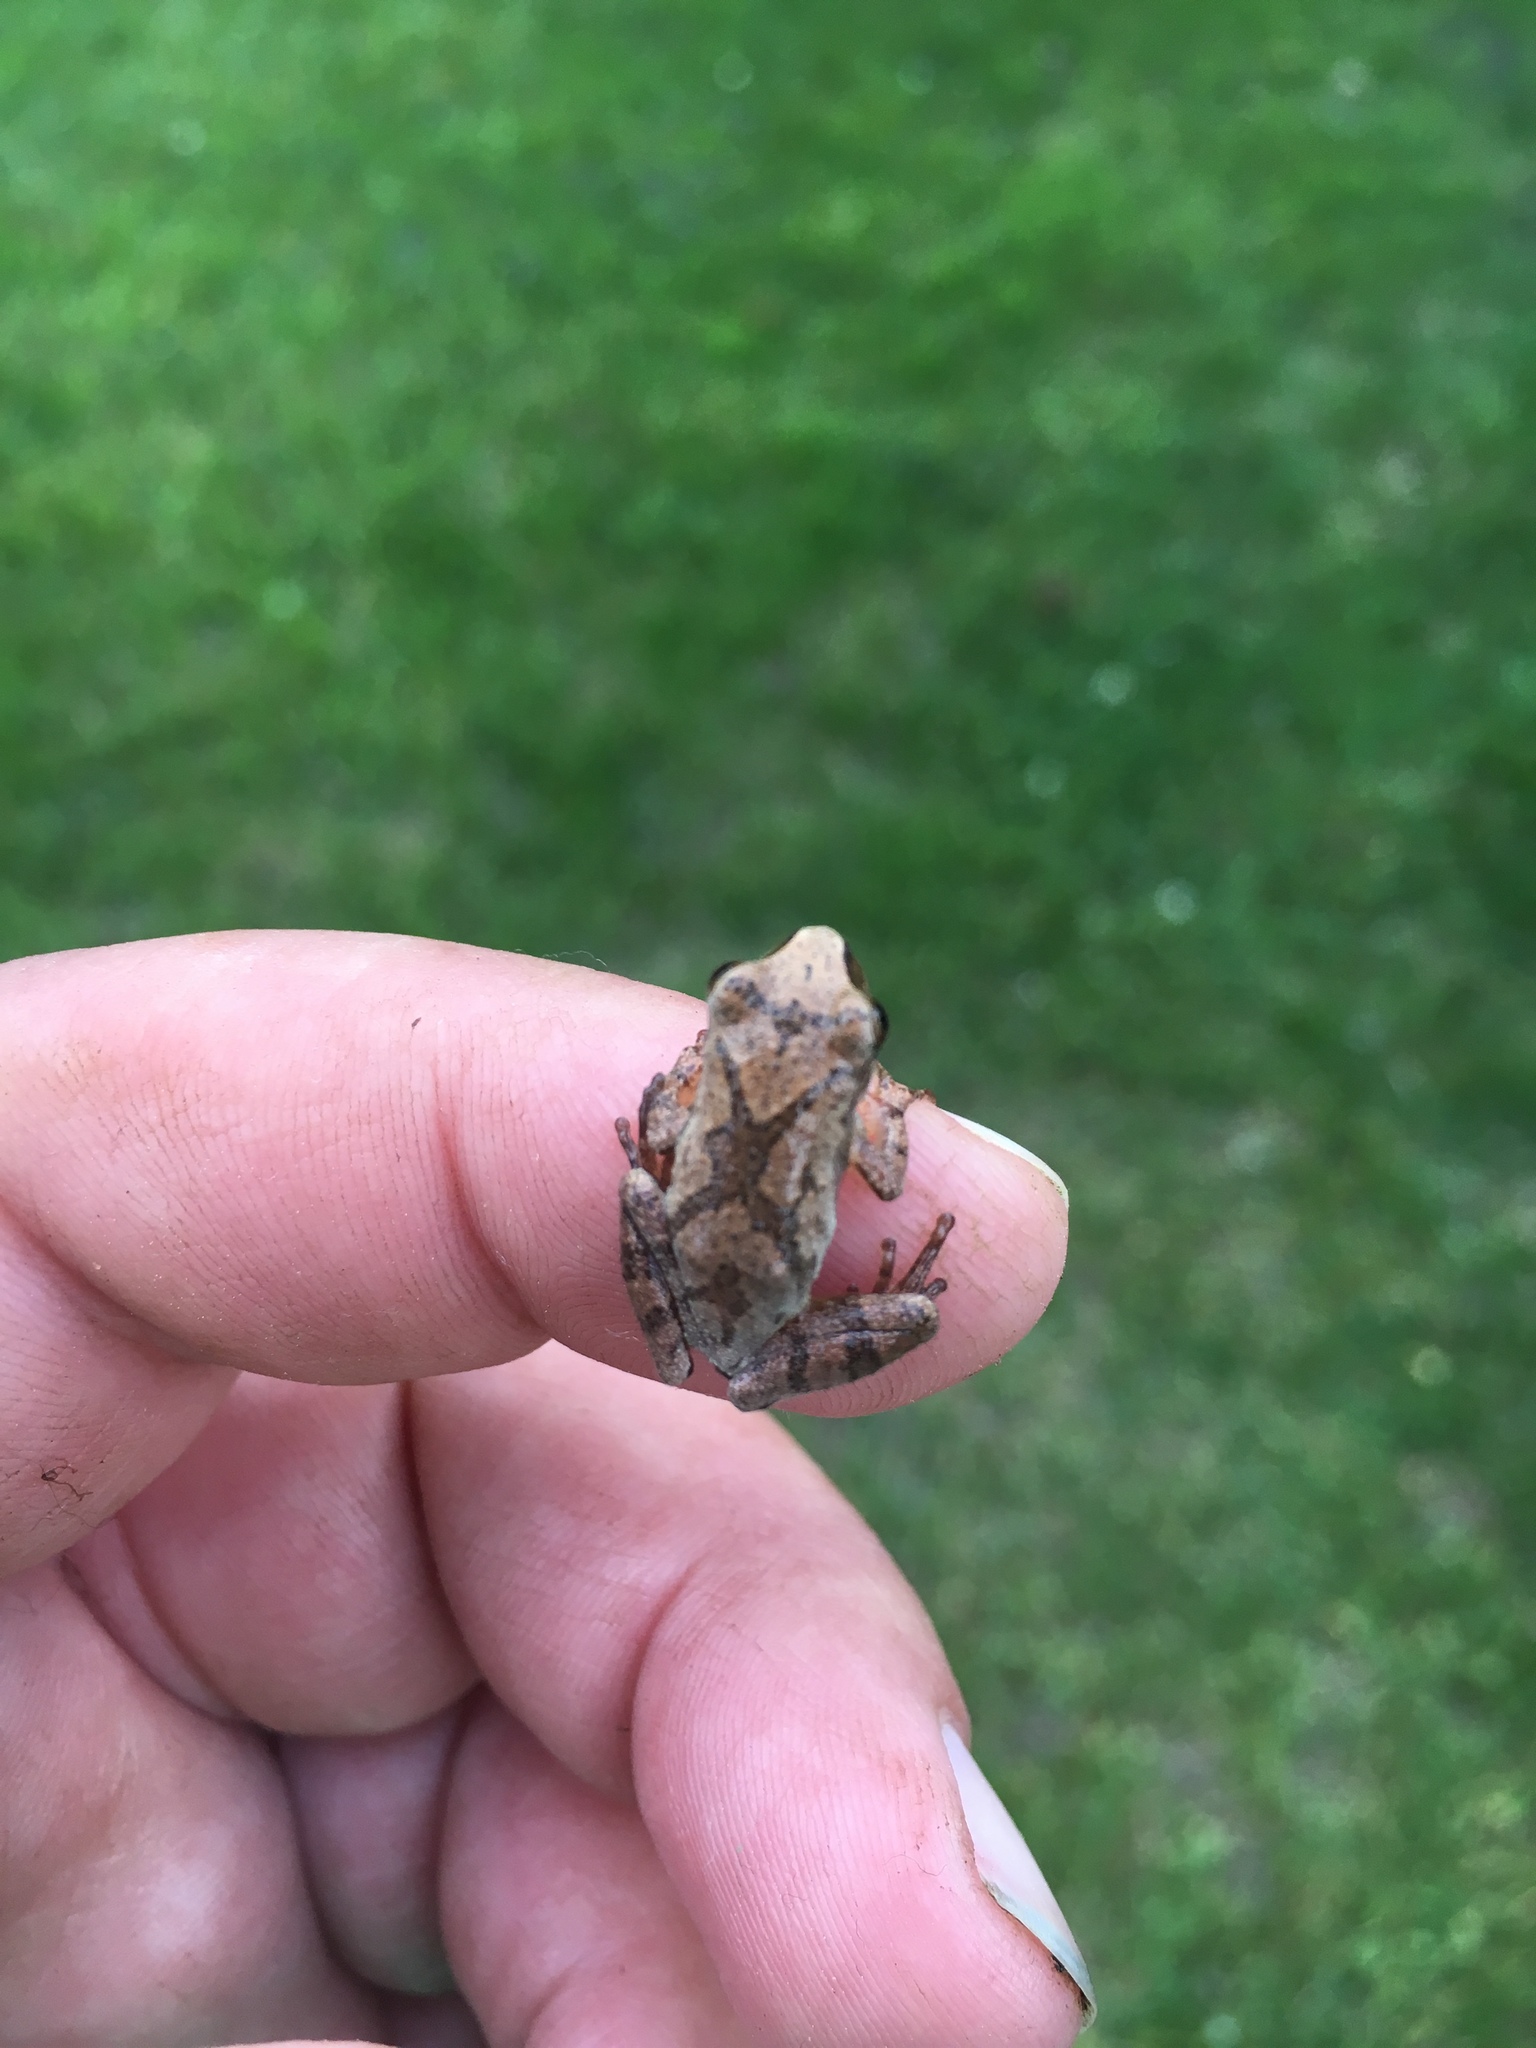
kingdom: Animalia
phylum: Chordata
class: Amphibia
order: Anura
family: Hylidae
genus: Pseudacris
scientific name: Pseudacris crucifer
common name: Spring peeper
